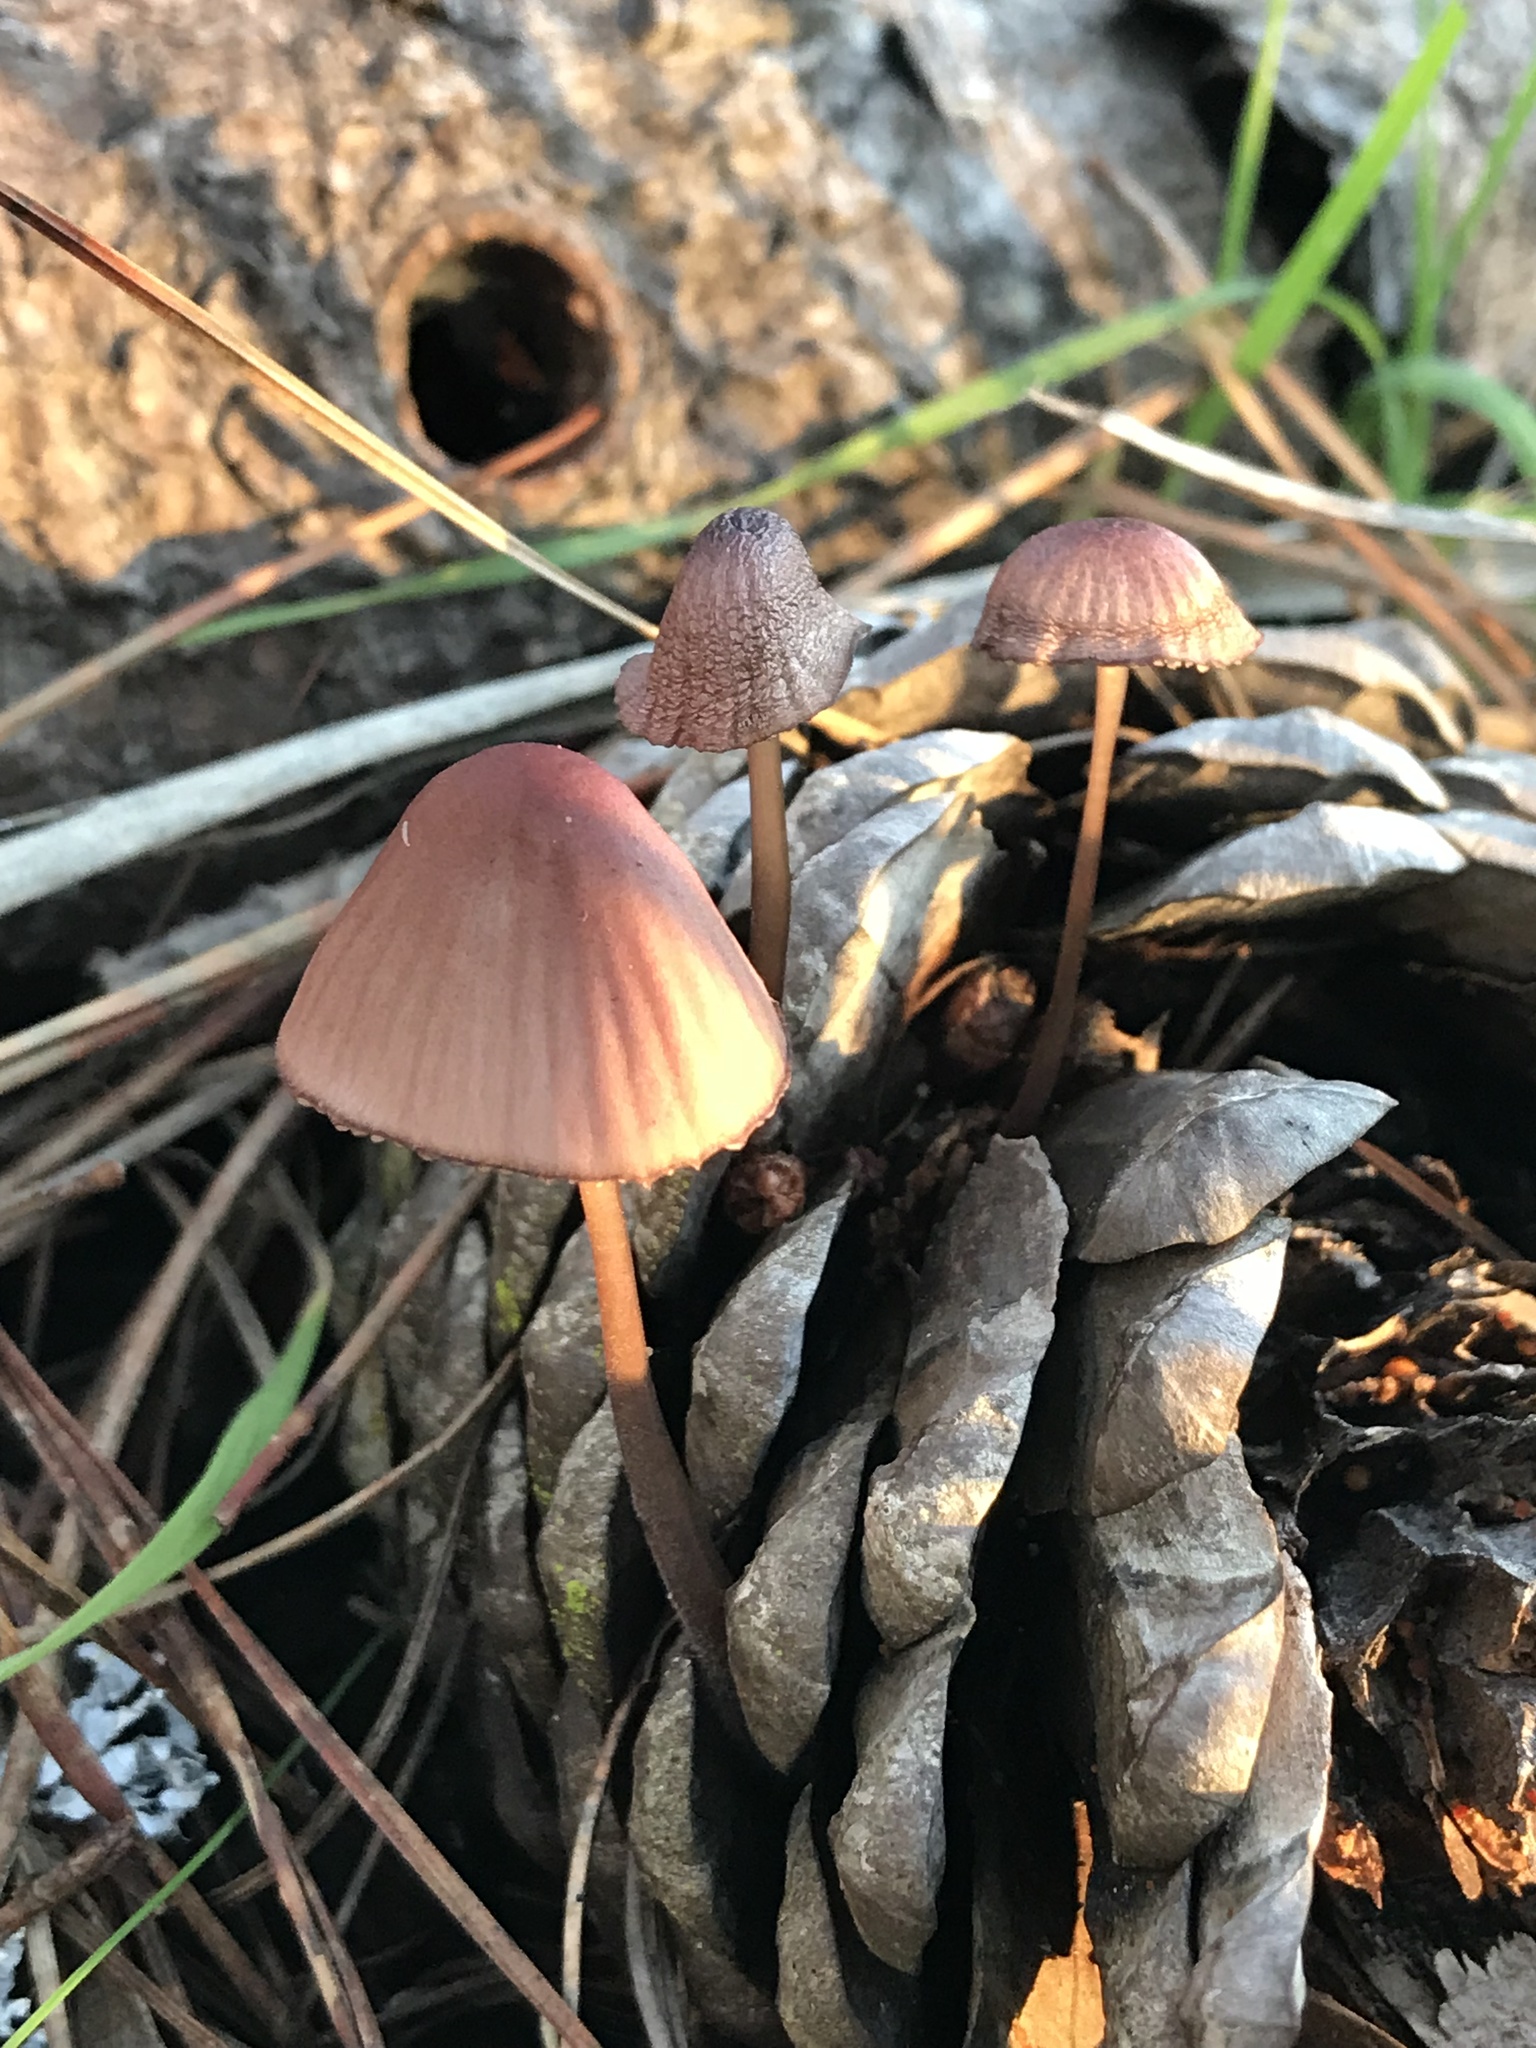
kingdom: Fungi
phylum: Basidiomycota
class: Agaricomycetes
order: Agaricales
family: Mycenaceae
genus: Mycena
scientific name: Mycena purpureofusca
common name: Purple edge bonnet
